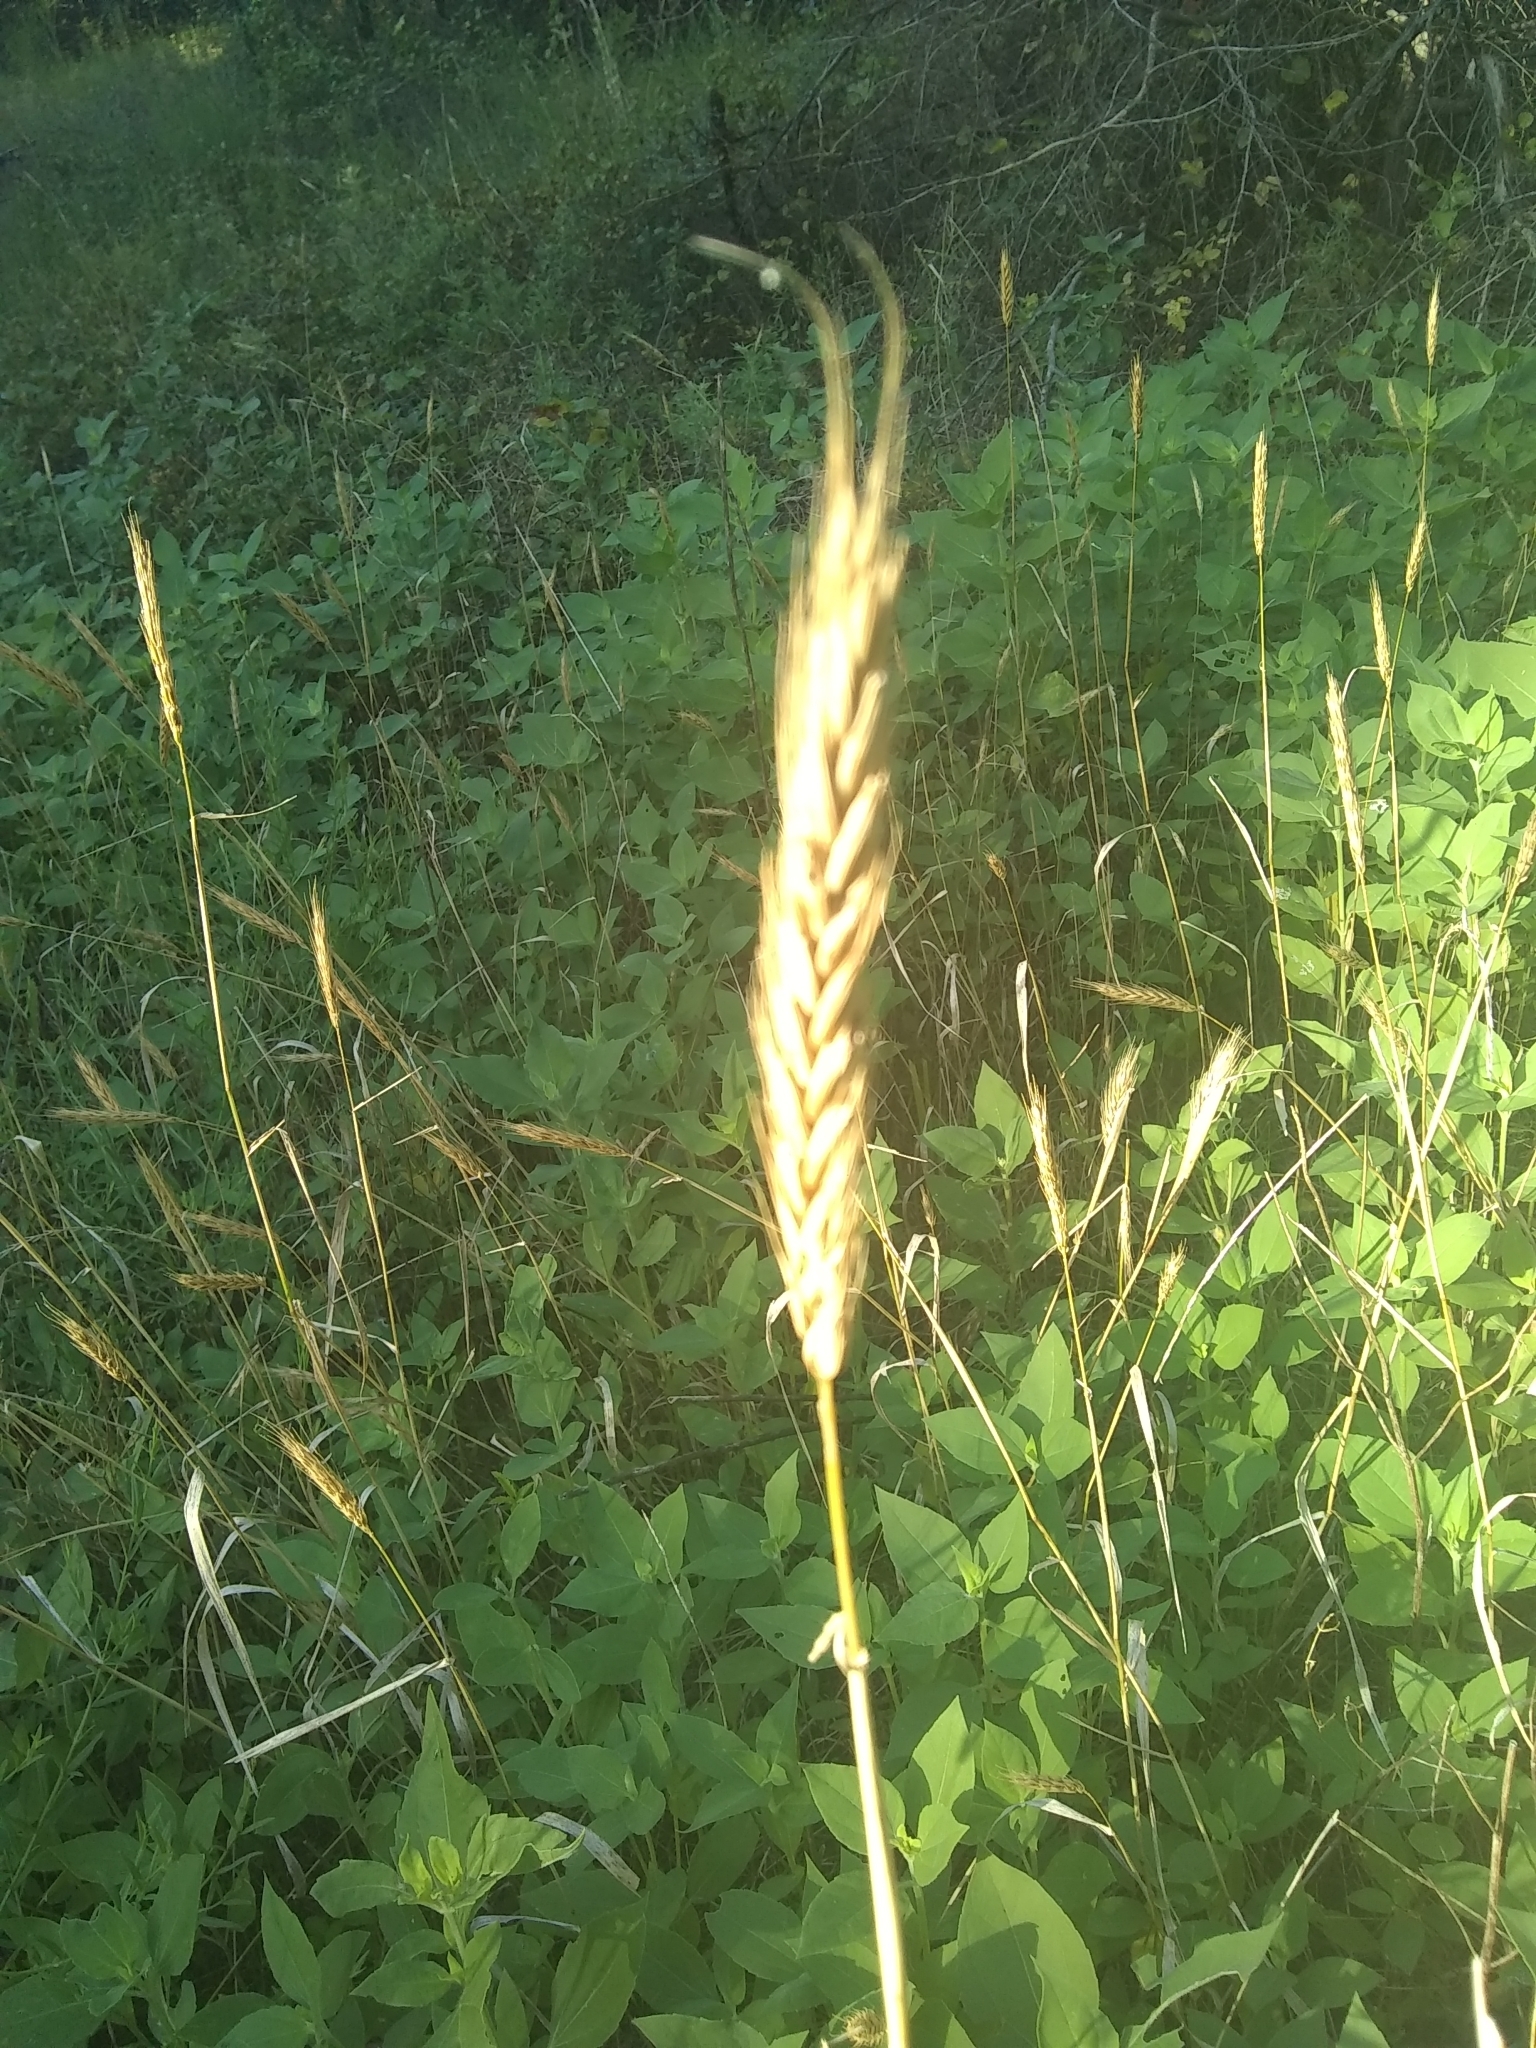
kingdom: Plantae
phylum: Tracheophyta
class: Liliopsida
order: Poales
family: Poaceae
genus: Elymus
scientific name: Elymus virginicus
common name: Common eastern wildrye
